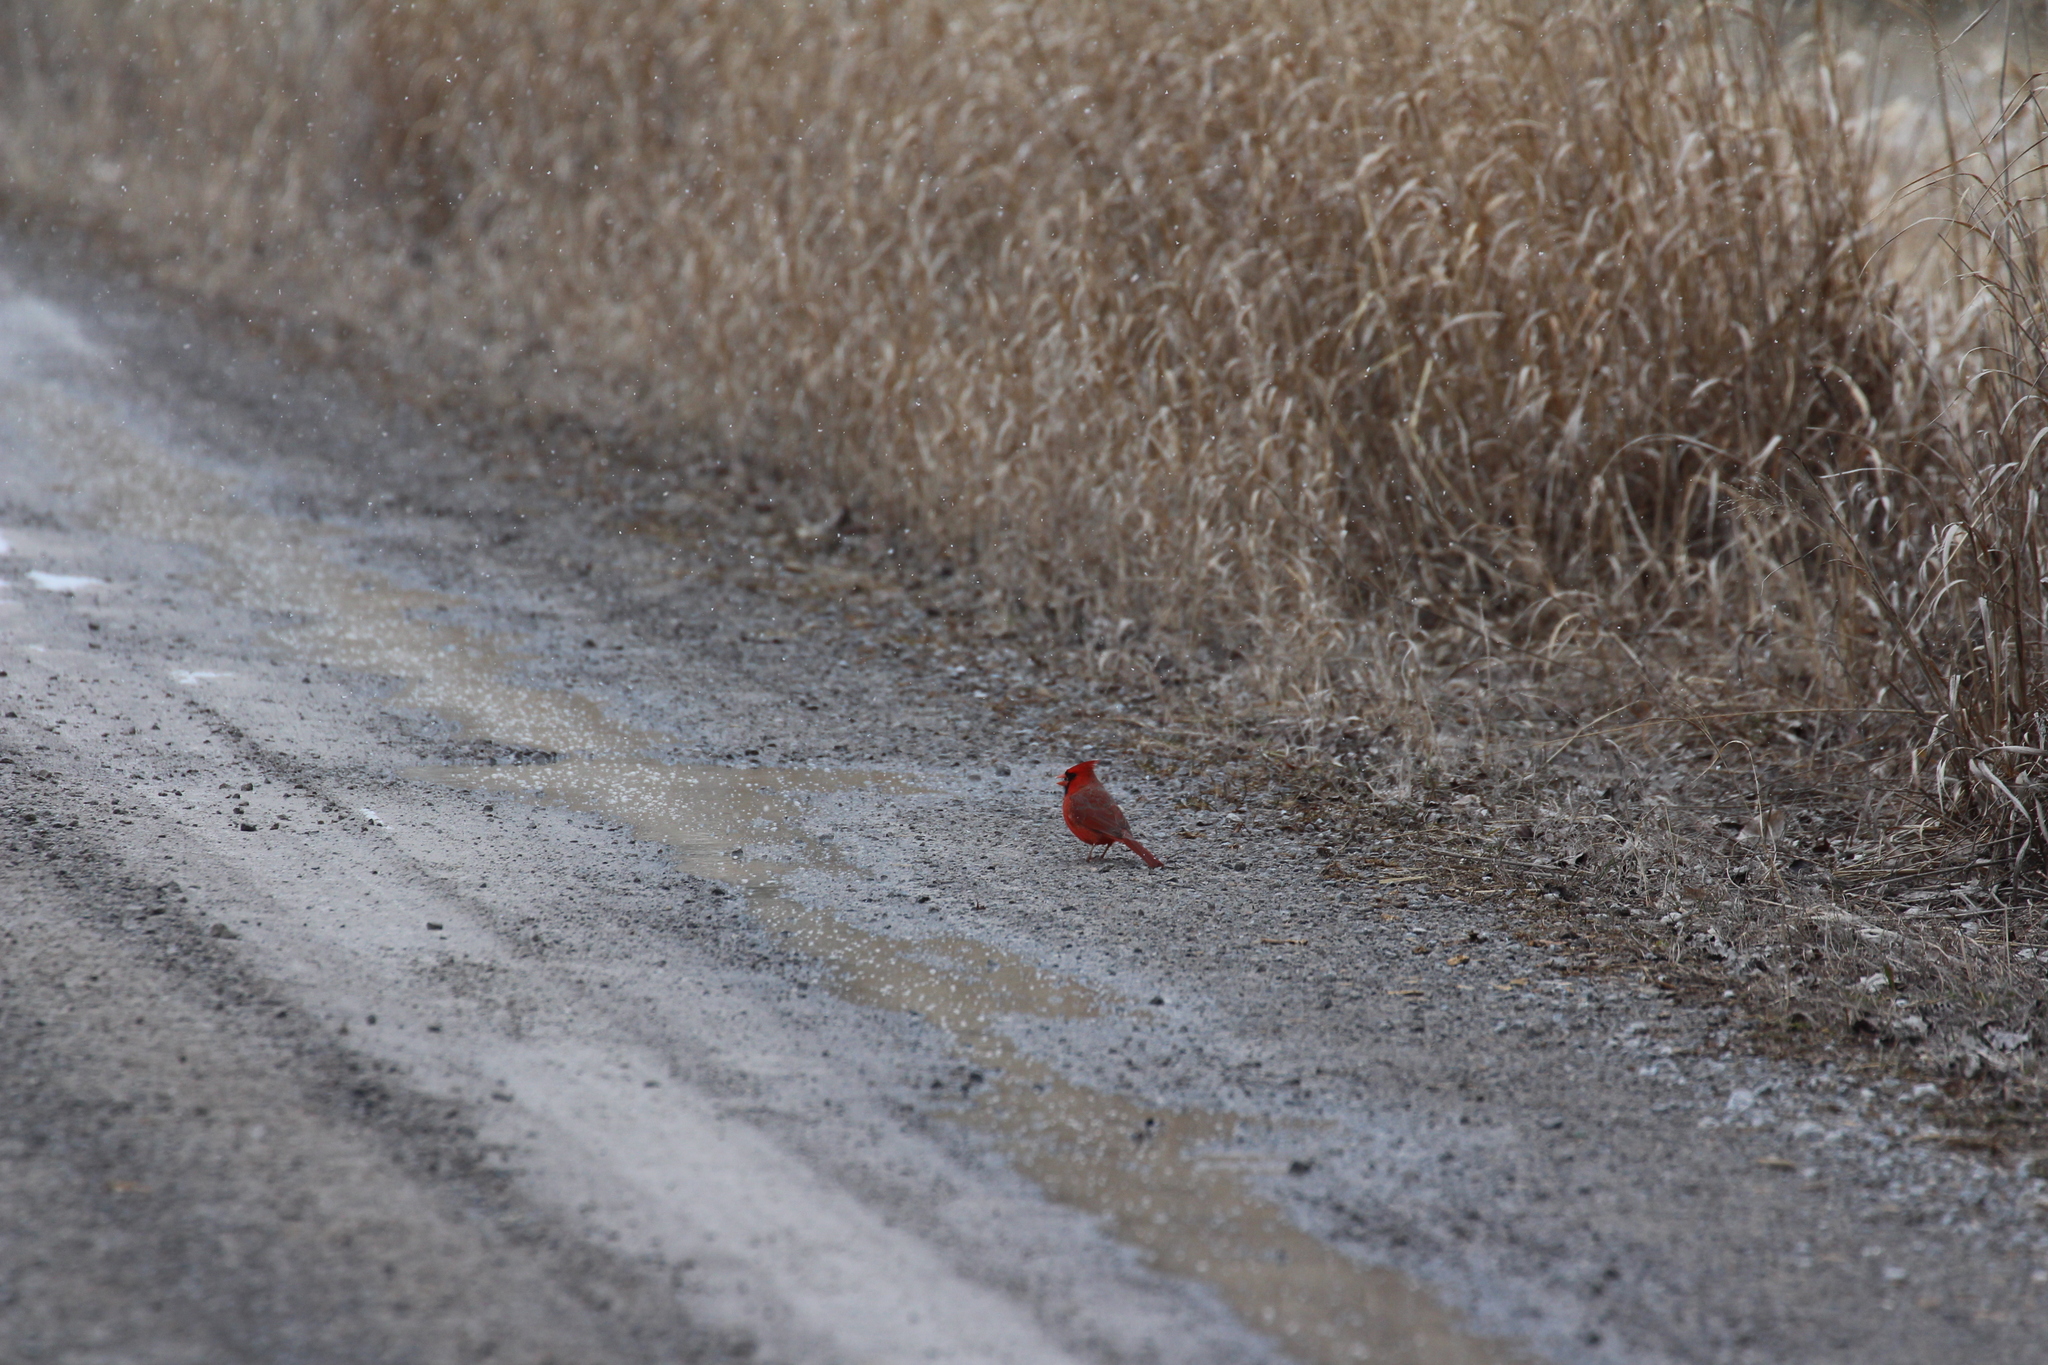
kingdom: Animalia
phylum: Chordata
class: Aves
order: Passeriformes
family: Cardinalidae
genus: Cardinalis
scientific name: Cardinalis cardinalis
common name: Northern cardinal
